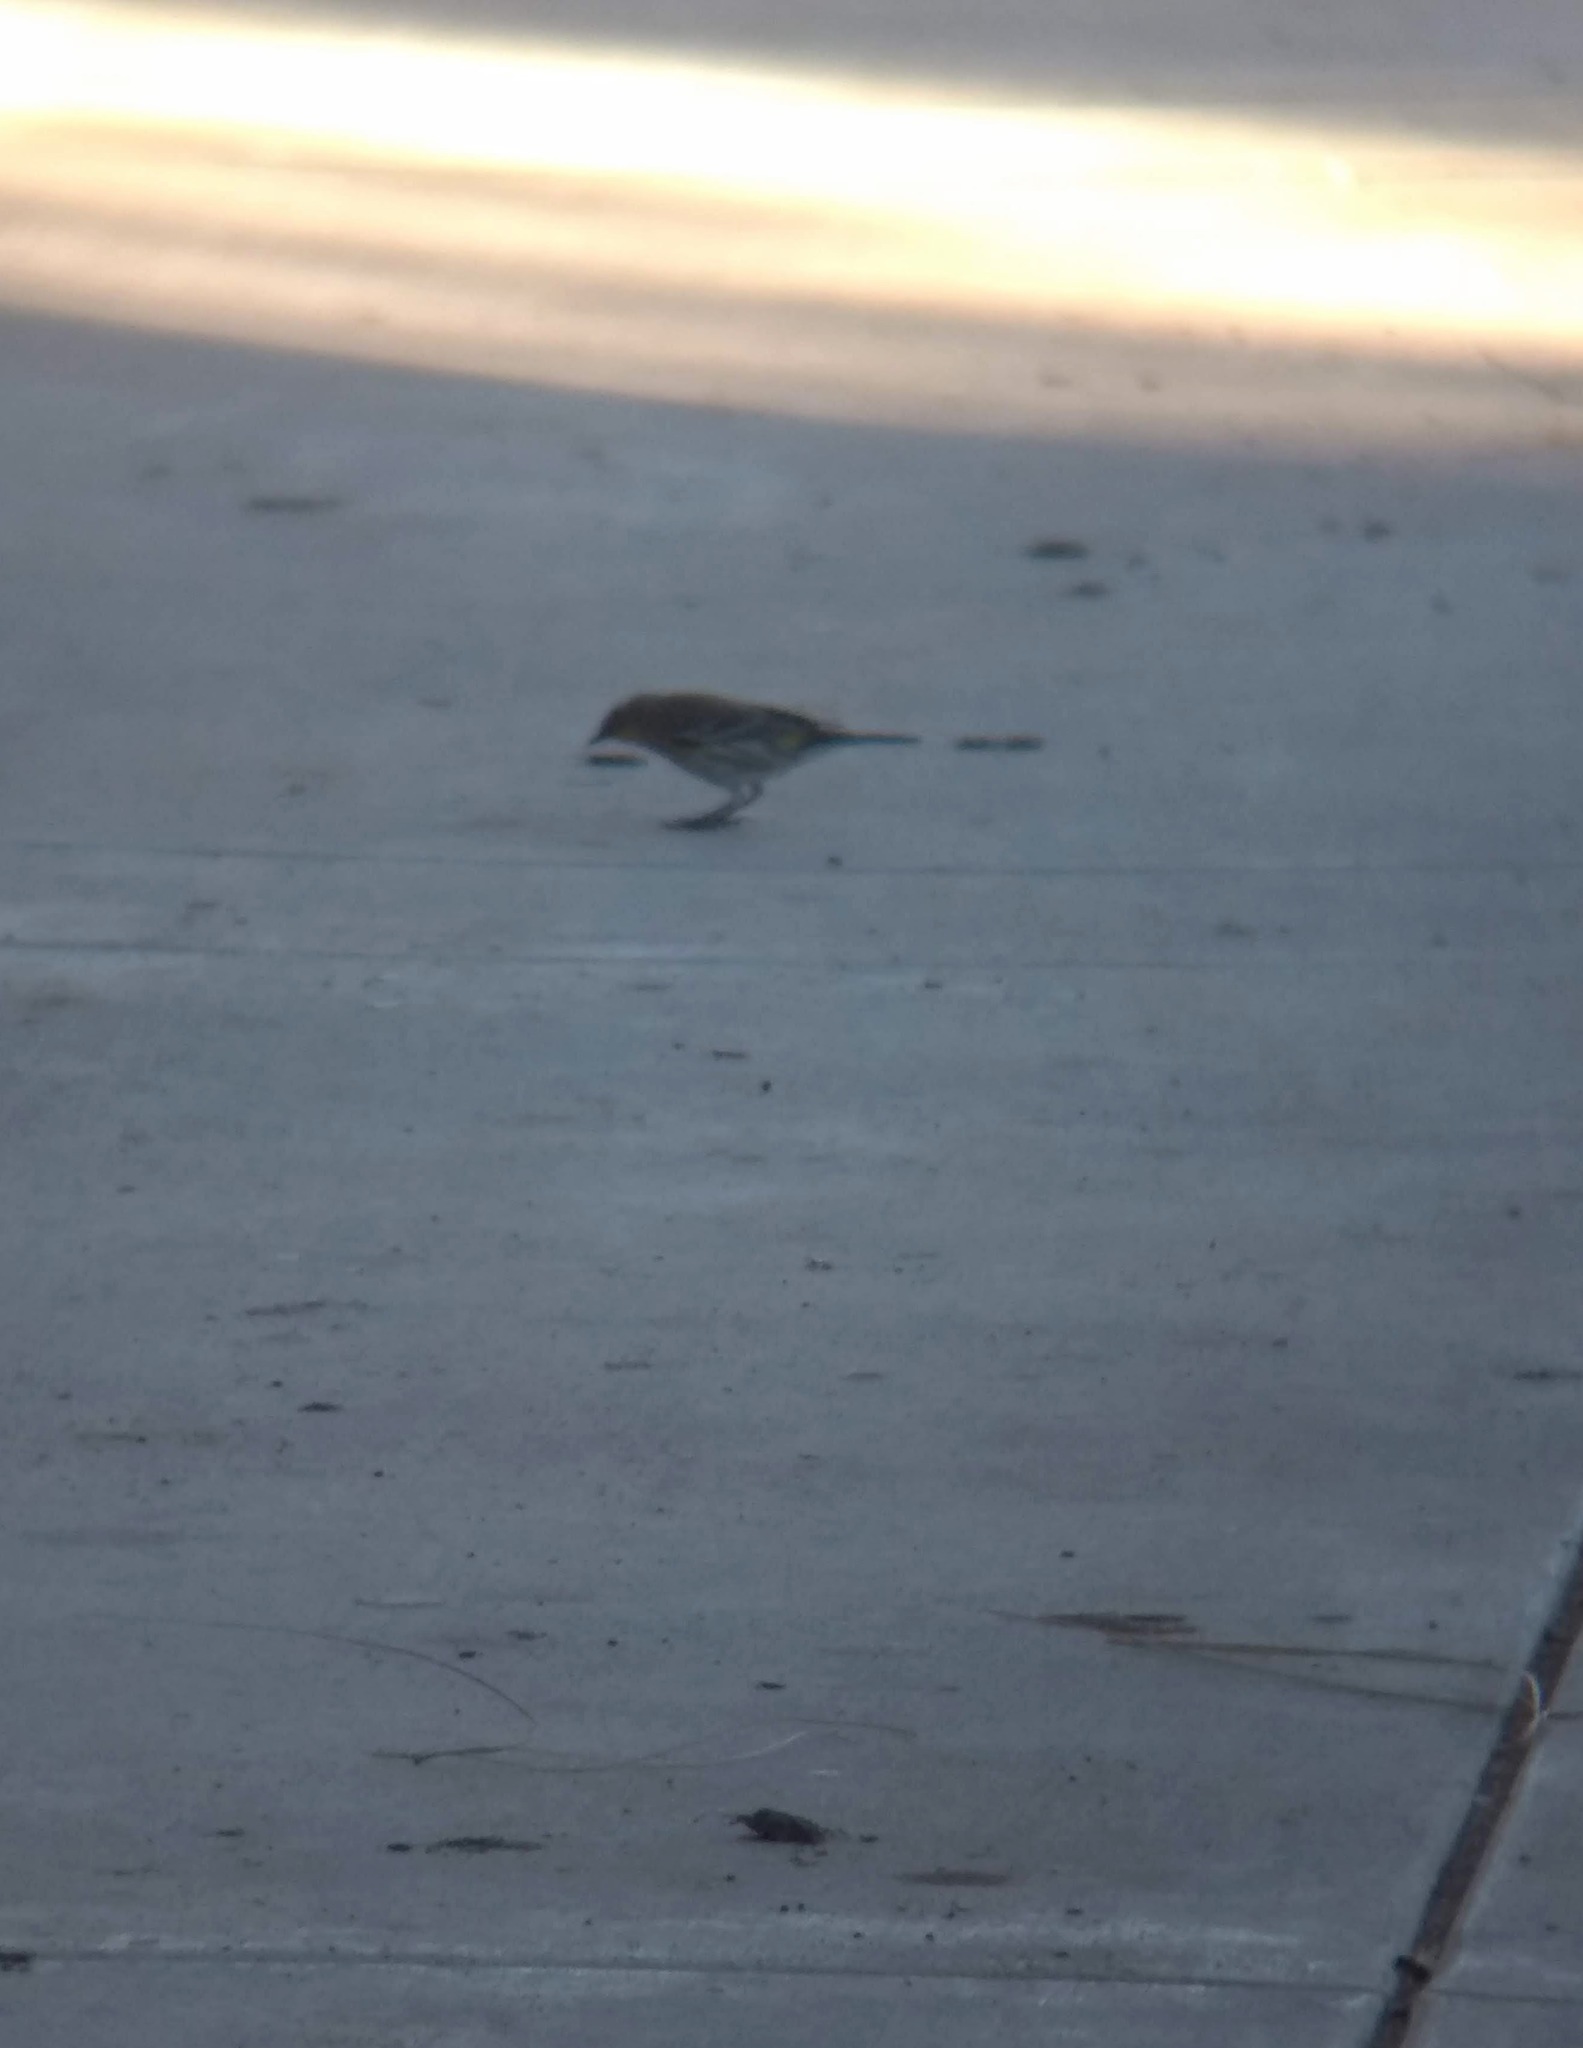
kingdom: Animalia
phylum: Chordata
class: Aves
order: Passeriformes
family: Parulidae
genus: Setophaga
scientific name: Setophaga coronata
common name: Myrtle warbler
